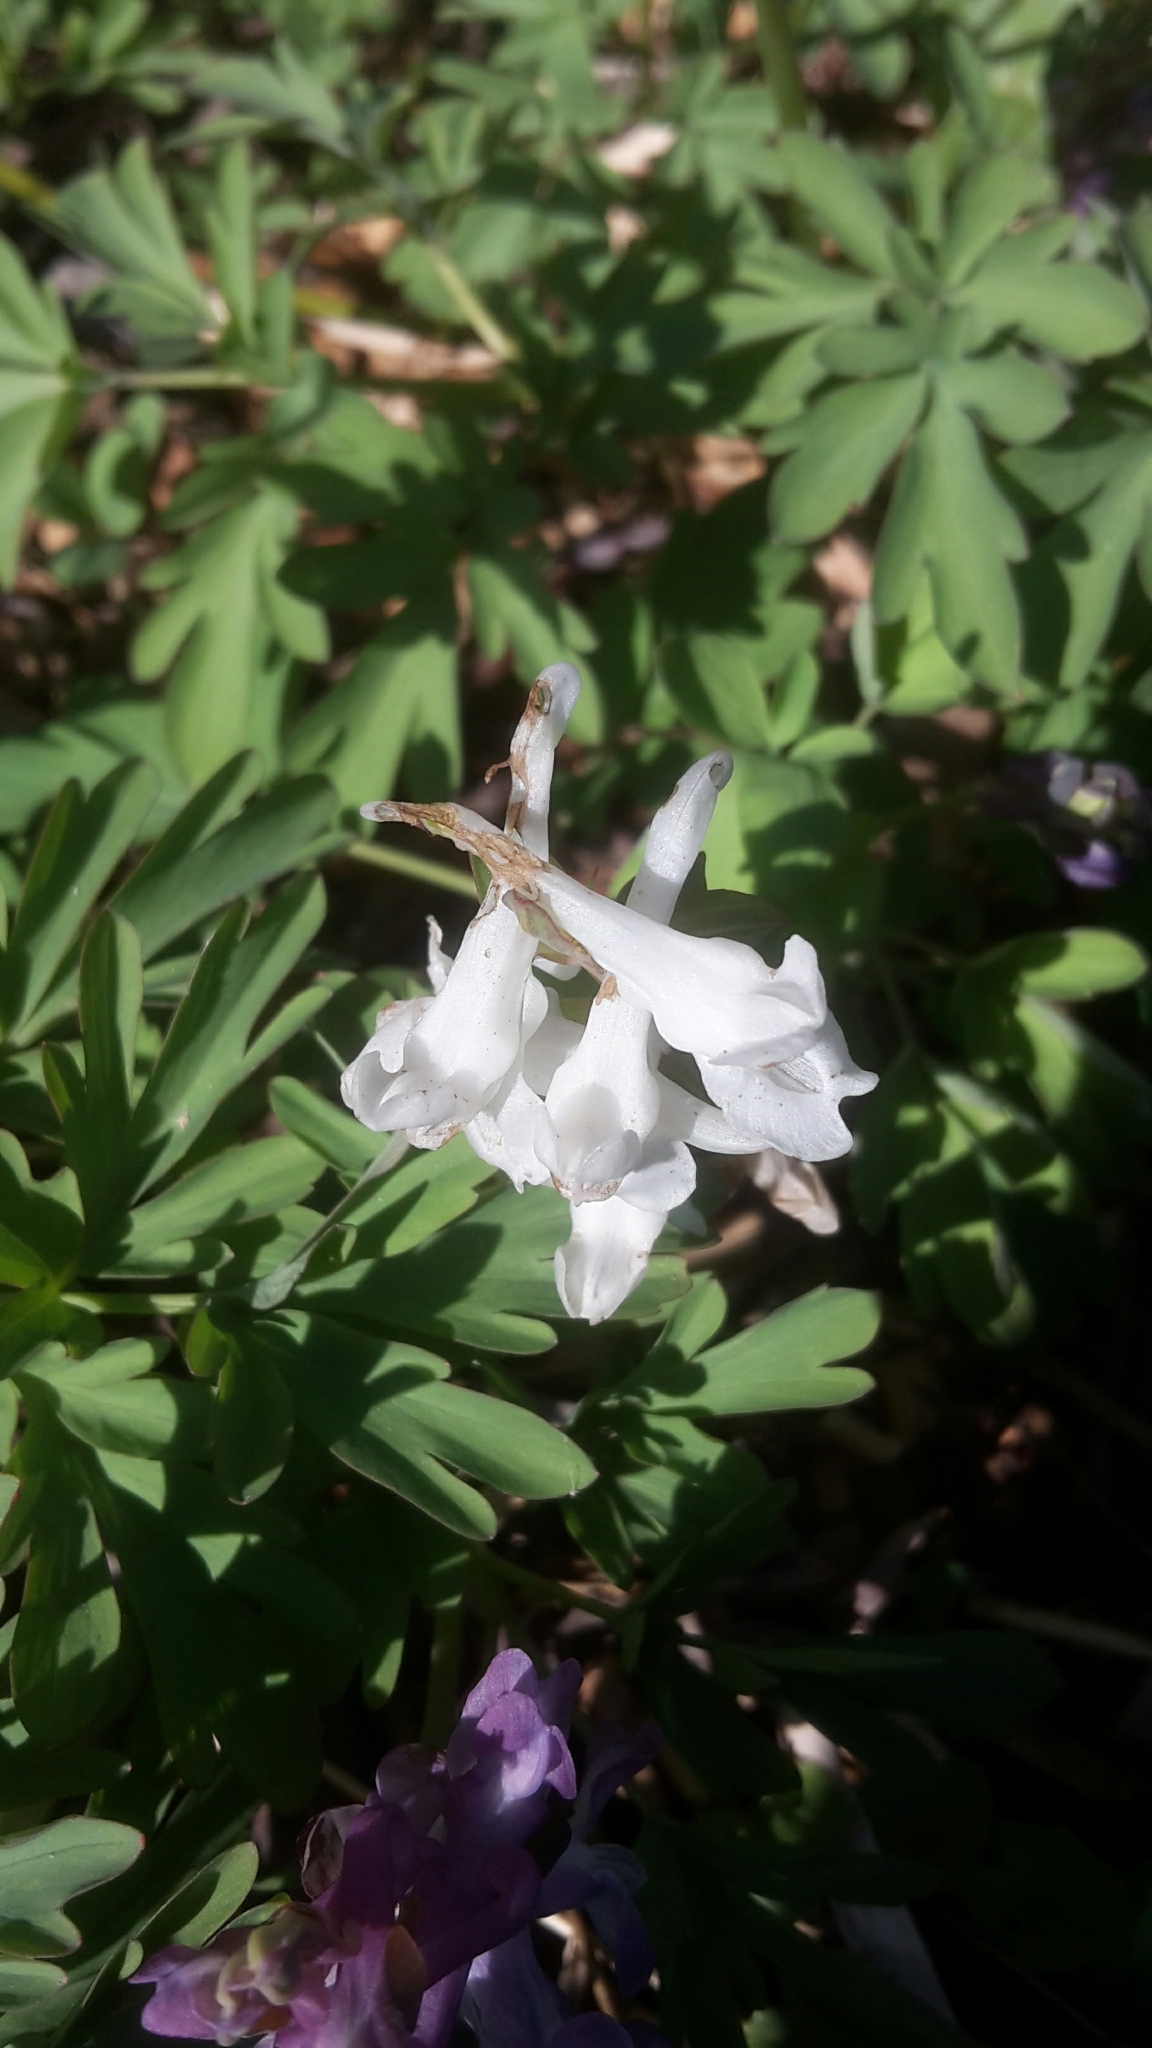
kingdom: Plantae
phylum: Tracheophyta
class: Magnoliopsida
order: Ranunculales
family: Papaveraceae
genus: Corydalis
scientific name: Corydalis cava
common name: Hollowroot
